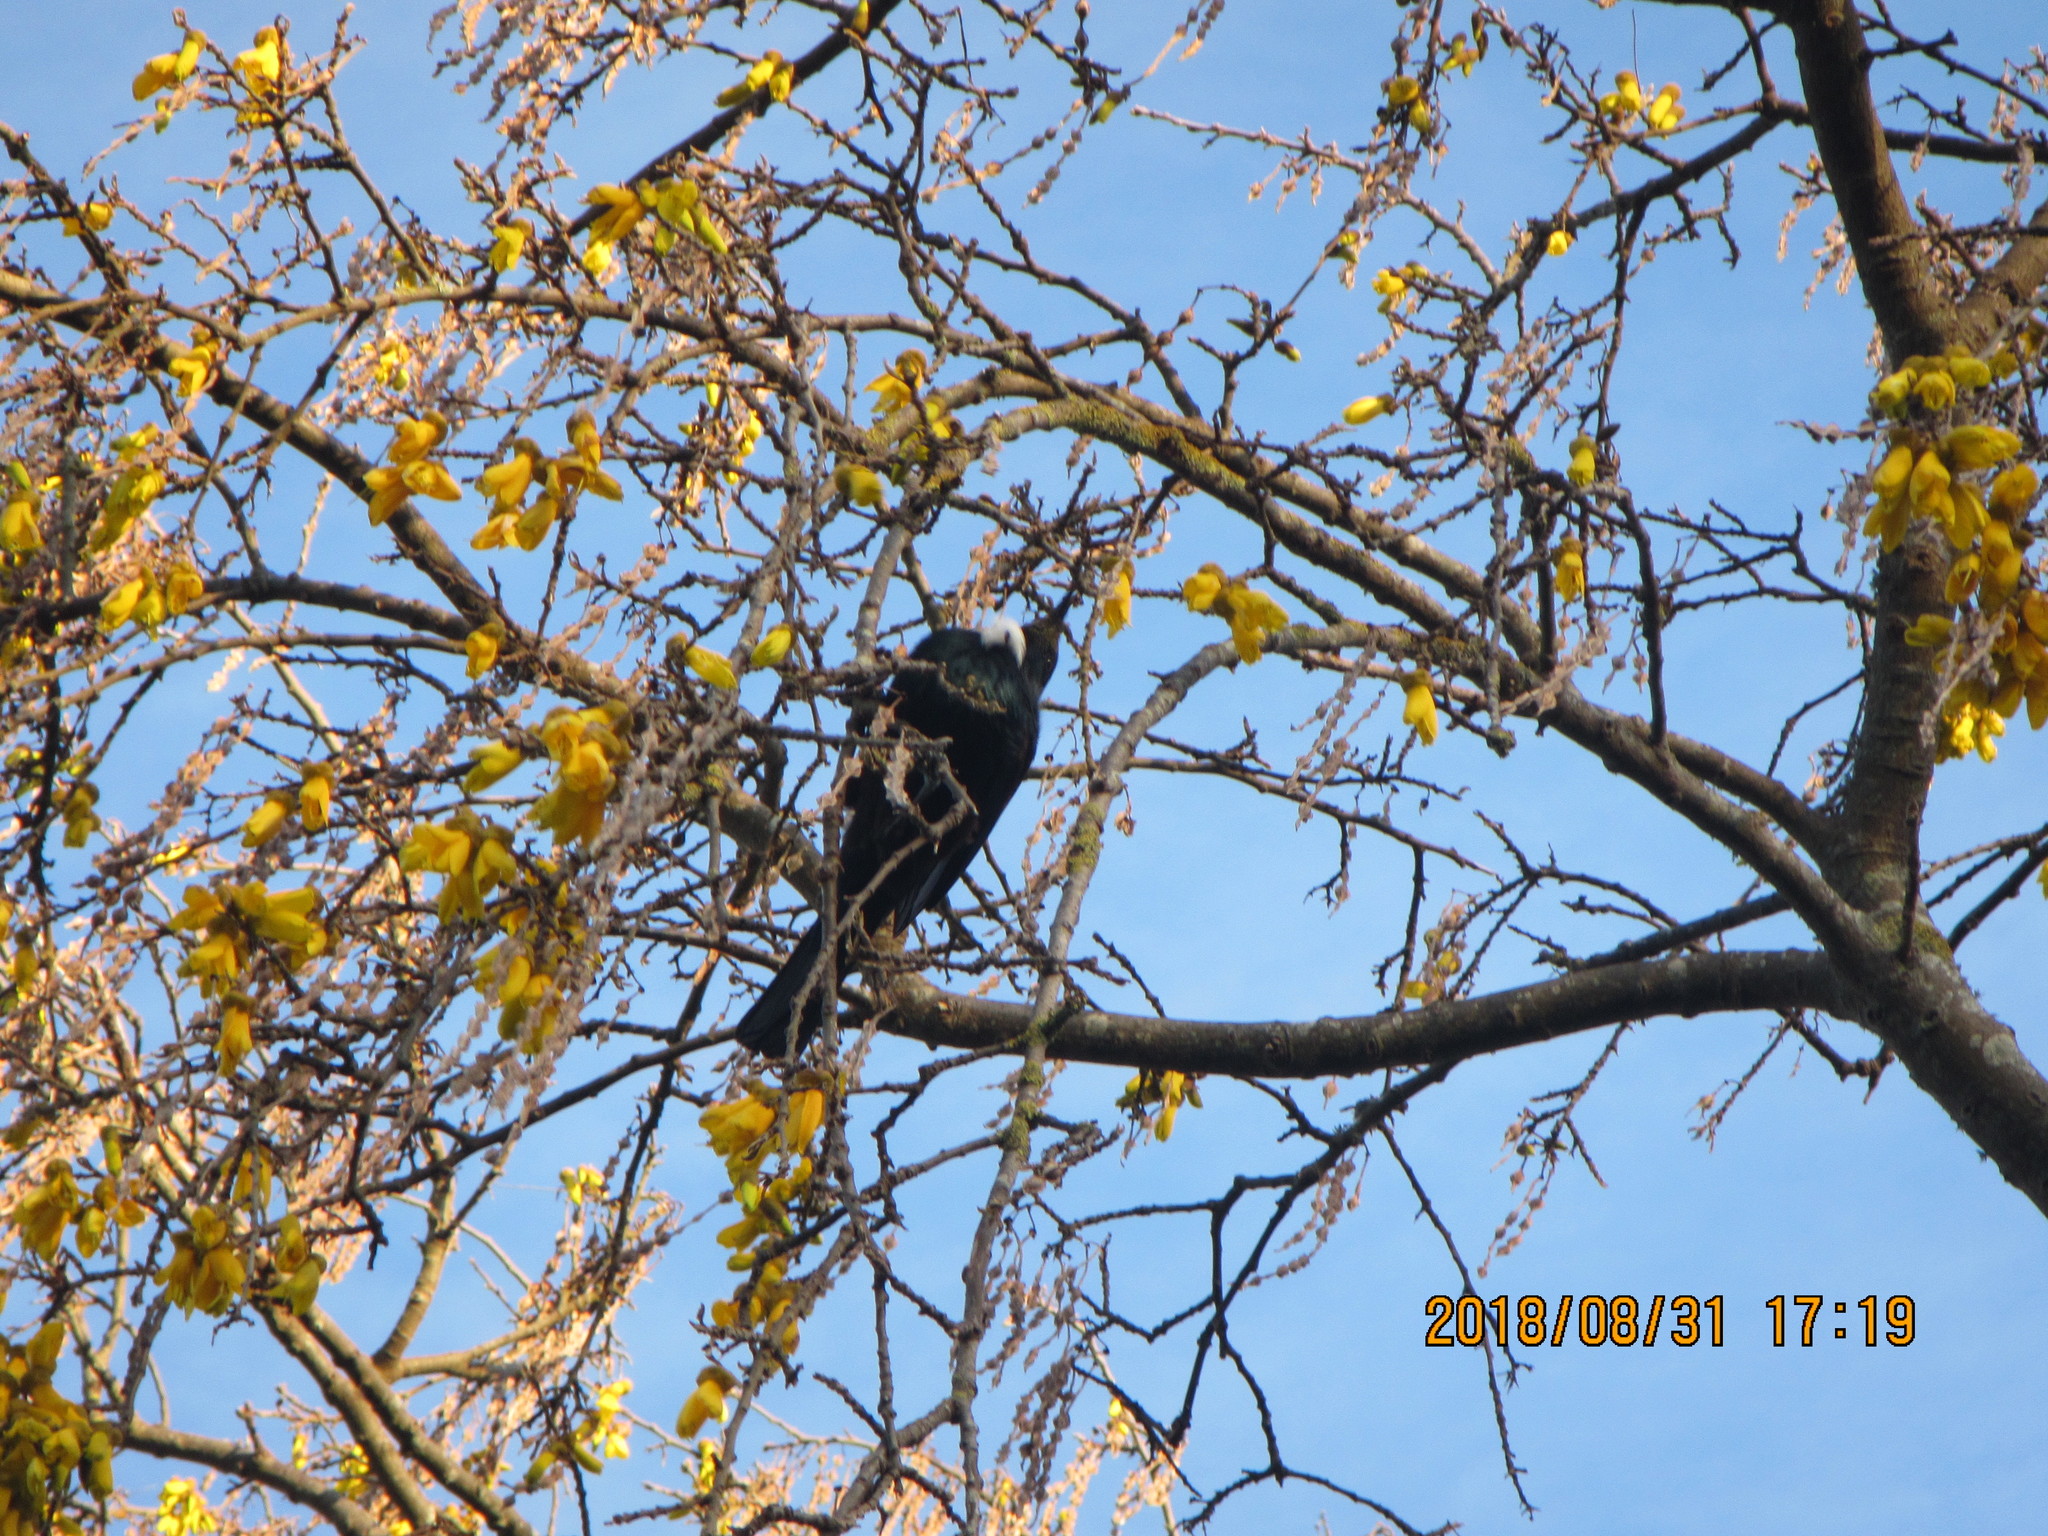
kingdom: Animalia
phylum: Chordata
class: Aves
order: Passeriformes
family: Meliphagidae
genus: Prosthemadera
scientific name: Prosthemadera novaeseelandiae
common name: Tui
